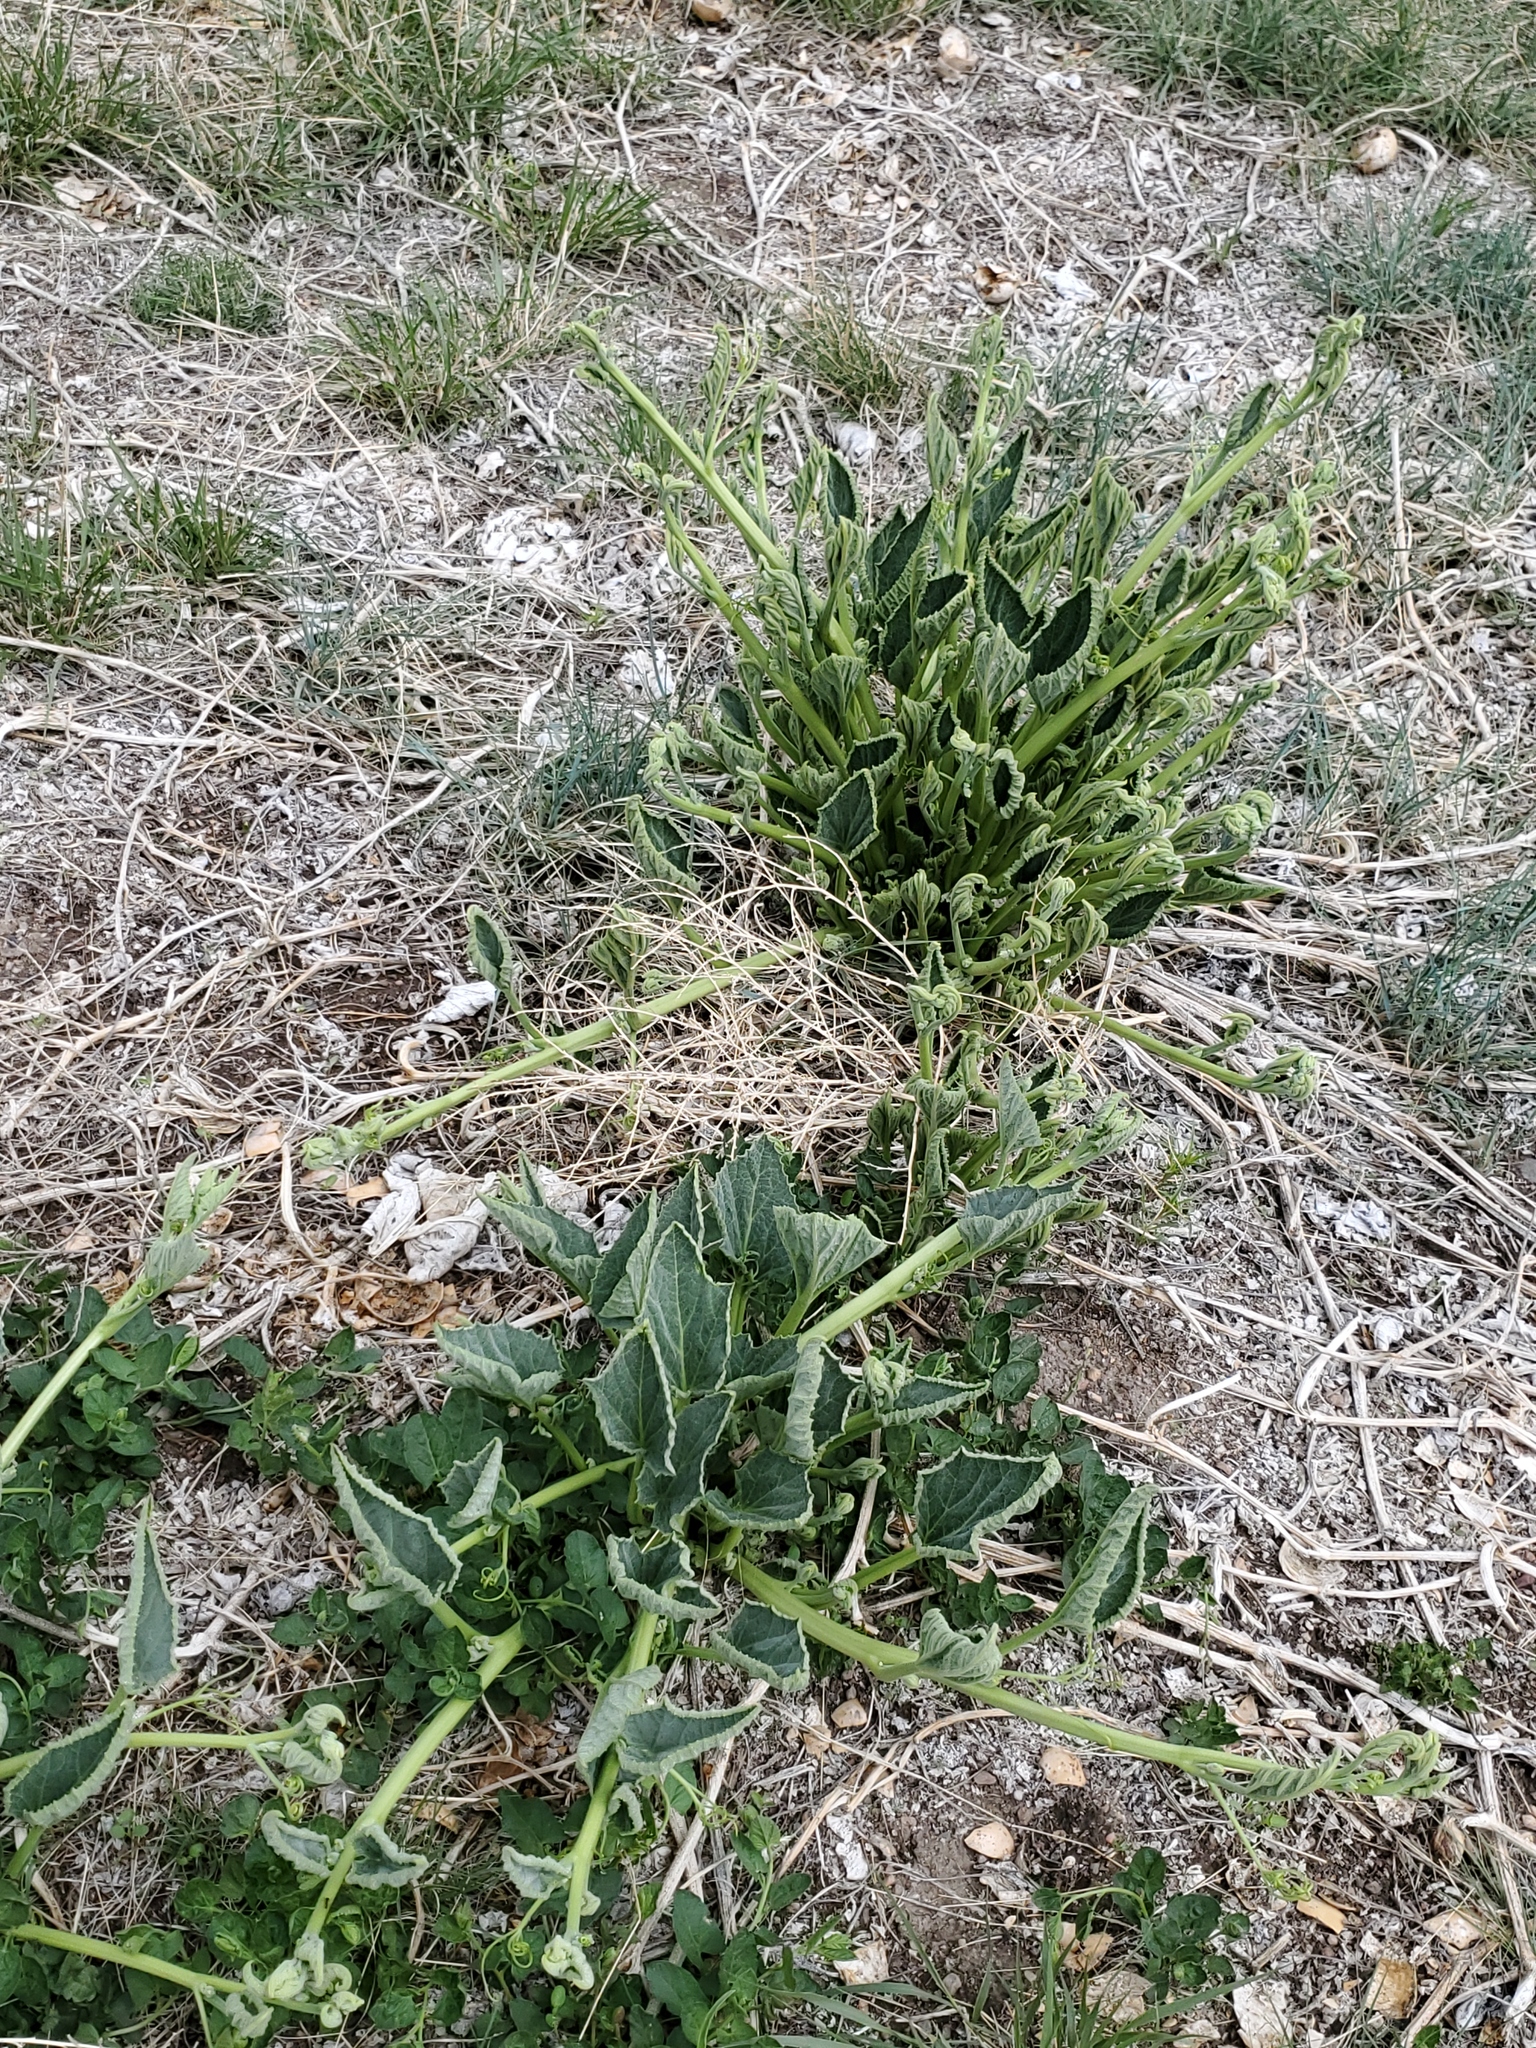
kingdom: Plantae
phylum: Tracheophyta
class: Magnoliopsida
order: Cucurbitales
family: Cucurbitaceae
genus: Cucurbita
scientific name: Cucurbita foetidissima
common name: Buffalo gourd
